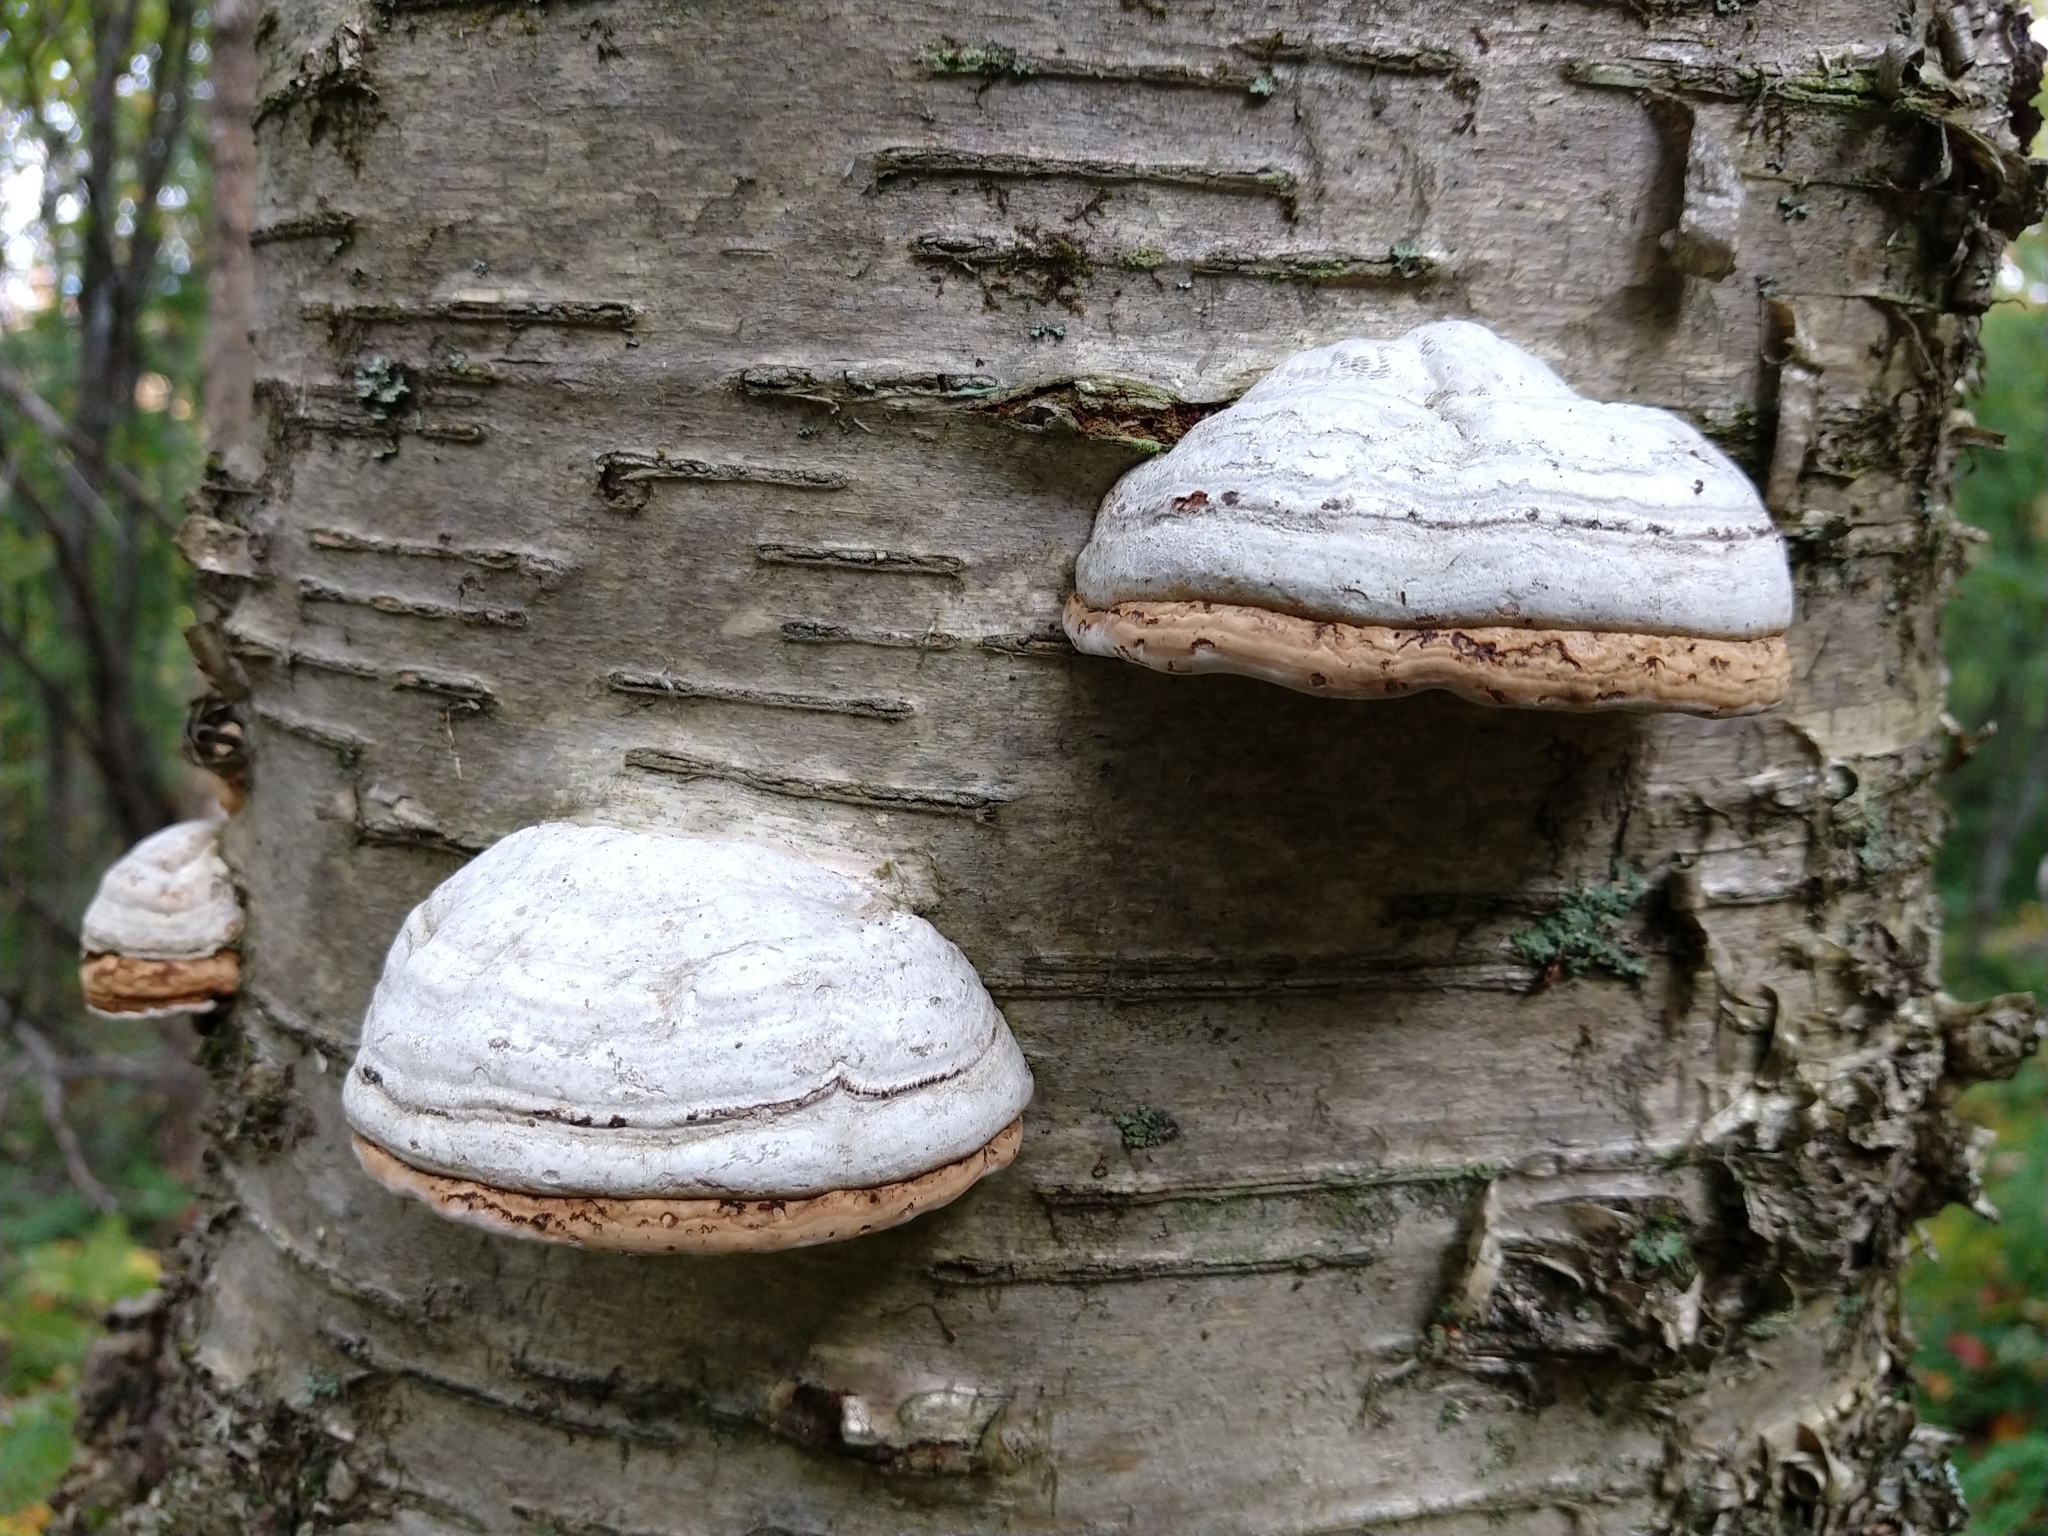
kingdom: Fungi
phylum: Basidiomycota
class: Agaricomycetes
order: Polyporales
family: Polyporaceae
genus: Fomes
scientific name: Fomes fomentarius
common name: Hoof fungus
